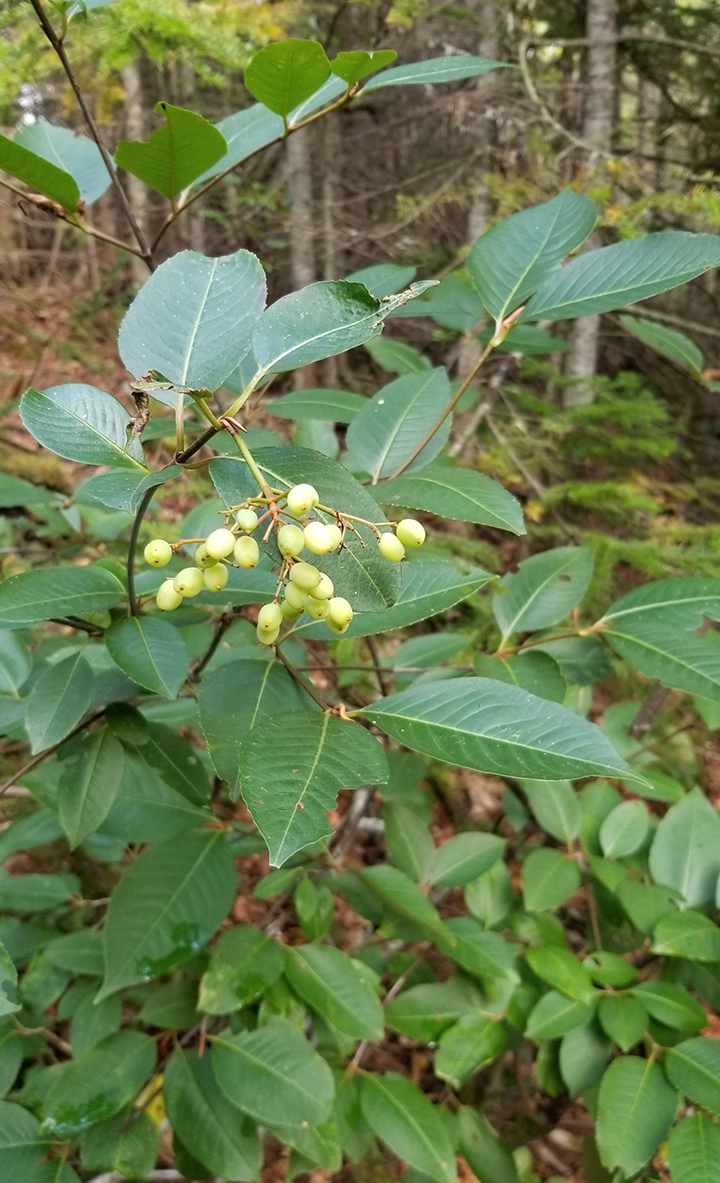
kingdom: Plantae
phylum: Tracheophyta
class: Magnoliopsida
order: Dipsacales
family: Viburnaceae
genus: Viburnum
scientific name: Viburnum cassinoides
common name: Swamp haw
